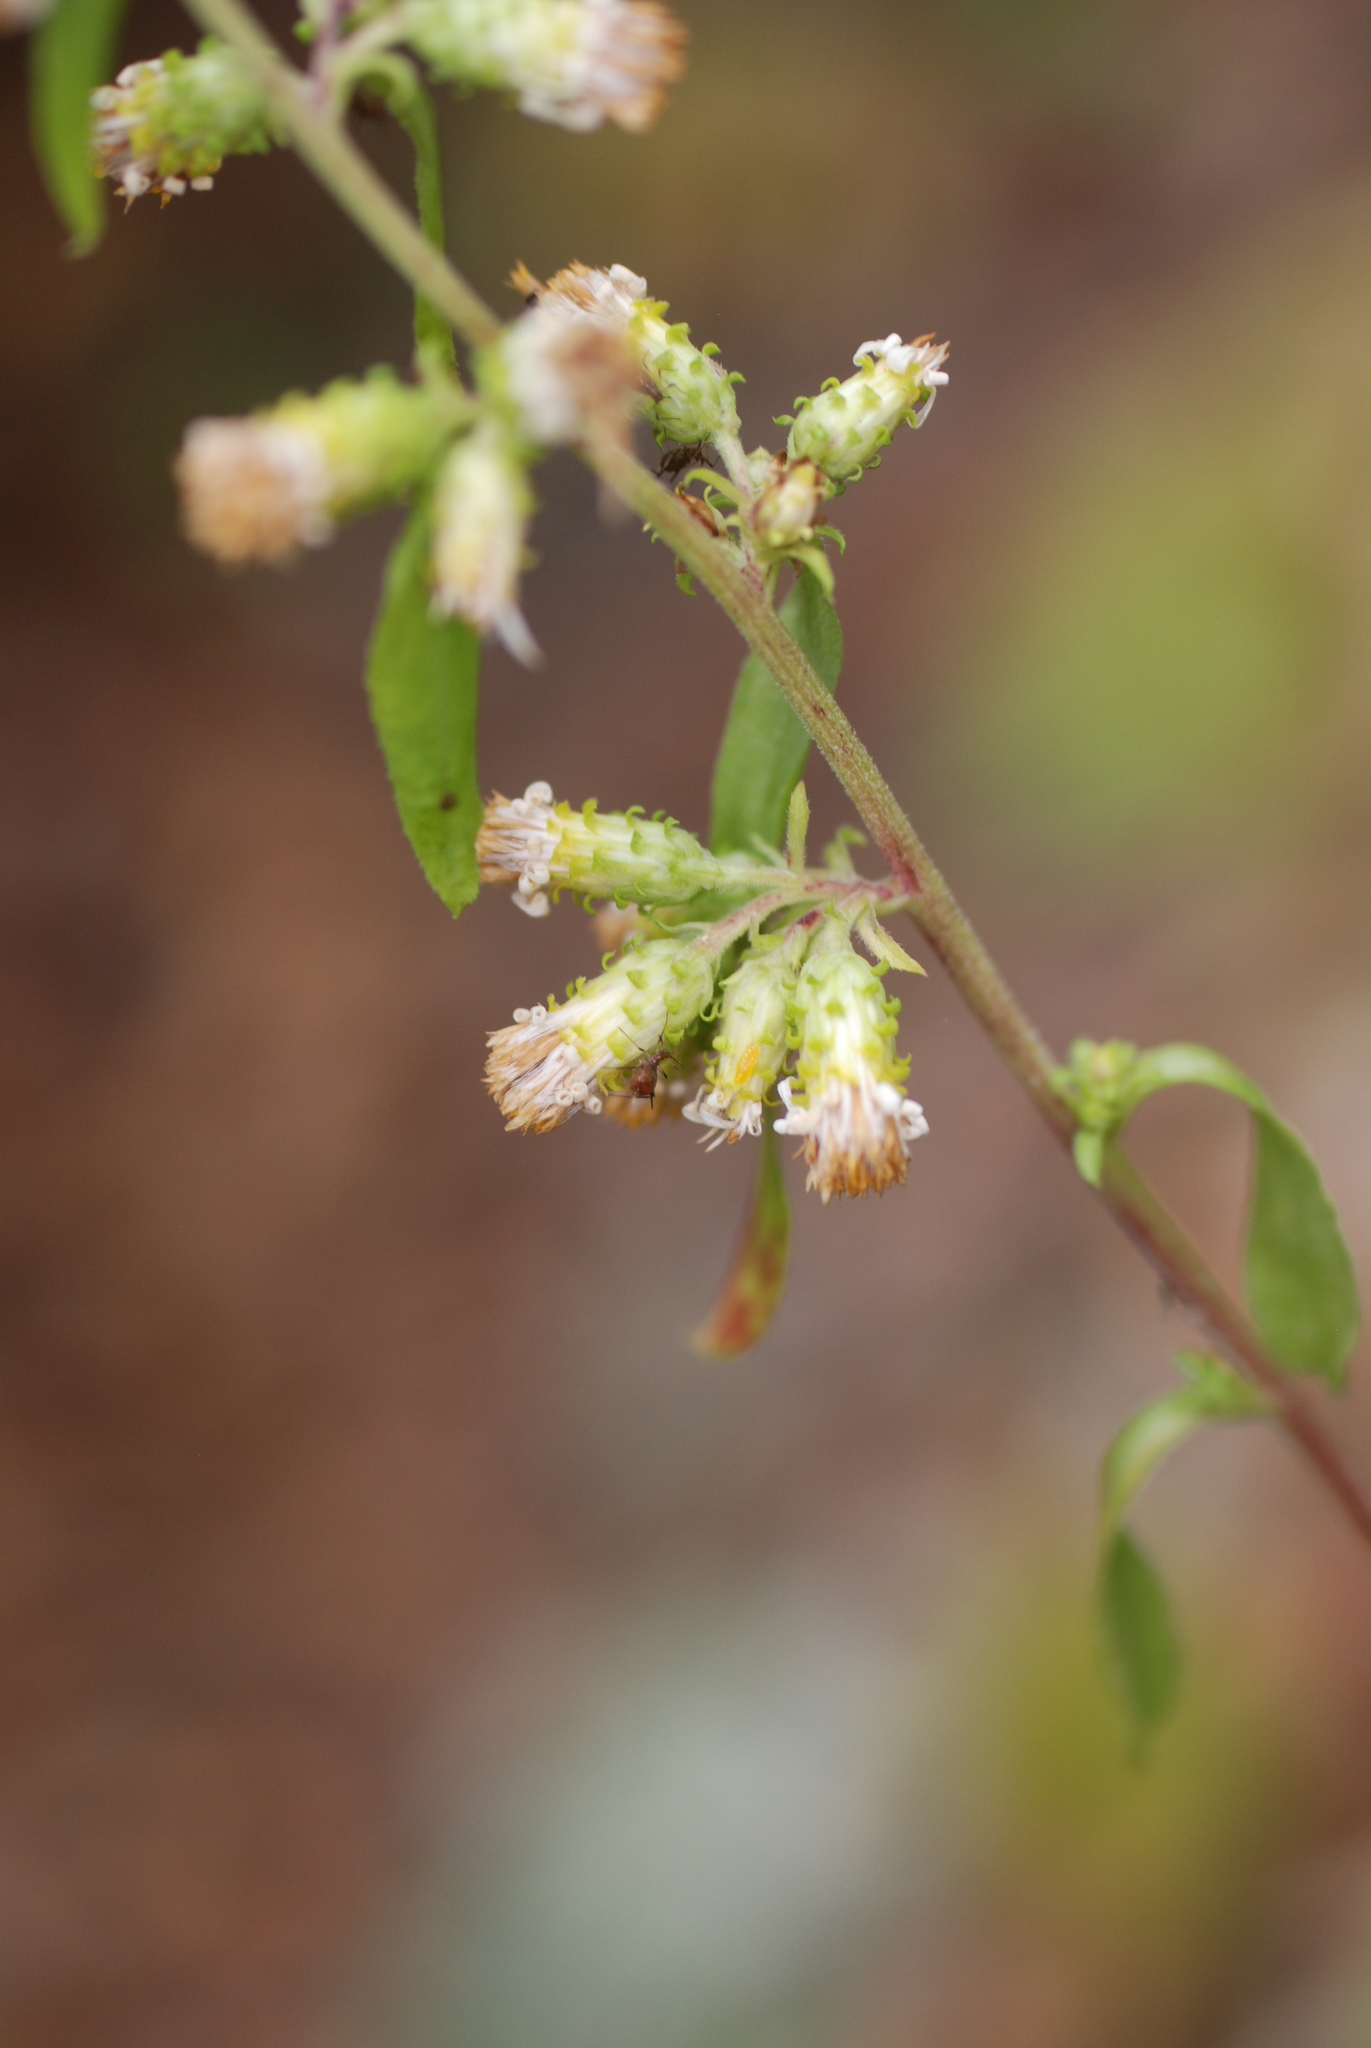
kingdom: Plantae
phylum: Tracheophyta
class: Magnoliopsida
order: Asterales
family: Asteraceae
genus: Solidago
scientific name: Solidago squarrosa
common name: Stout goldenrod
